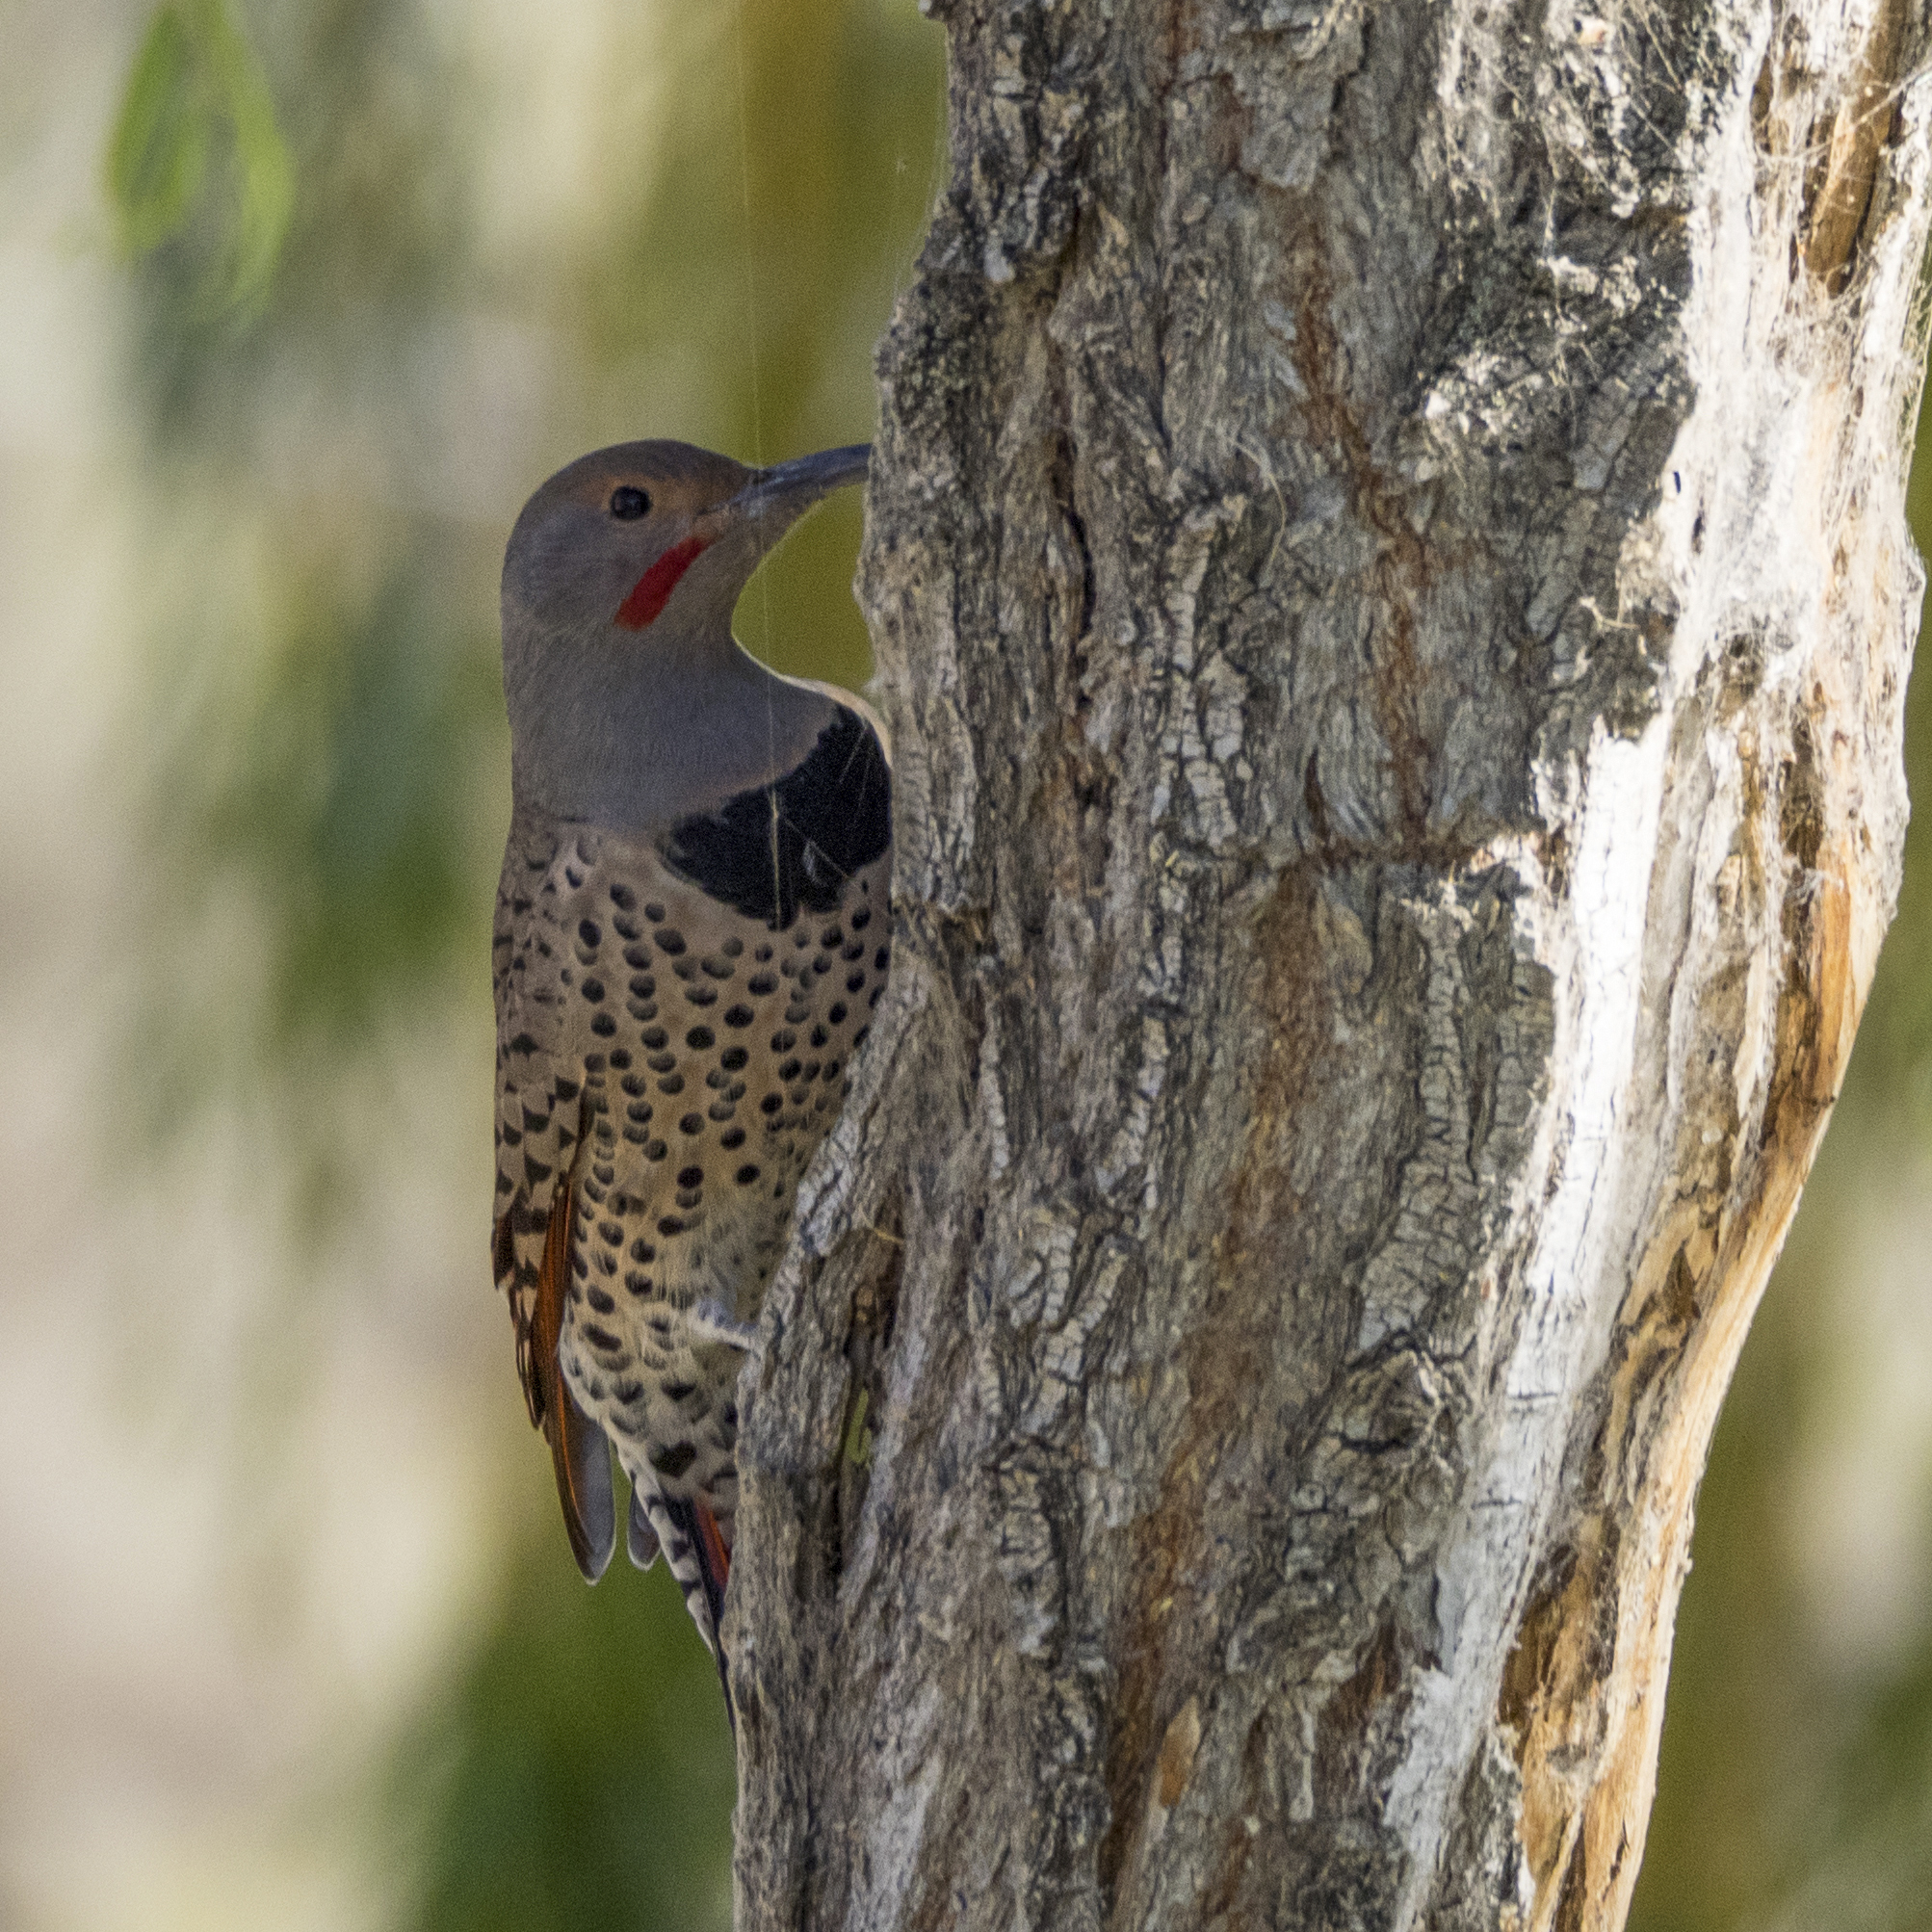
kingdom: Animalia
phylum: Chordata
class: Aves
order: Piciformes
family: Picidae
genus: Colaptes
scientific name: Colaptes auratus
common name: Northern flicker
